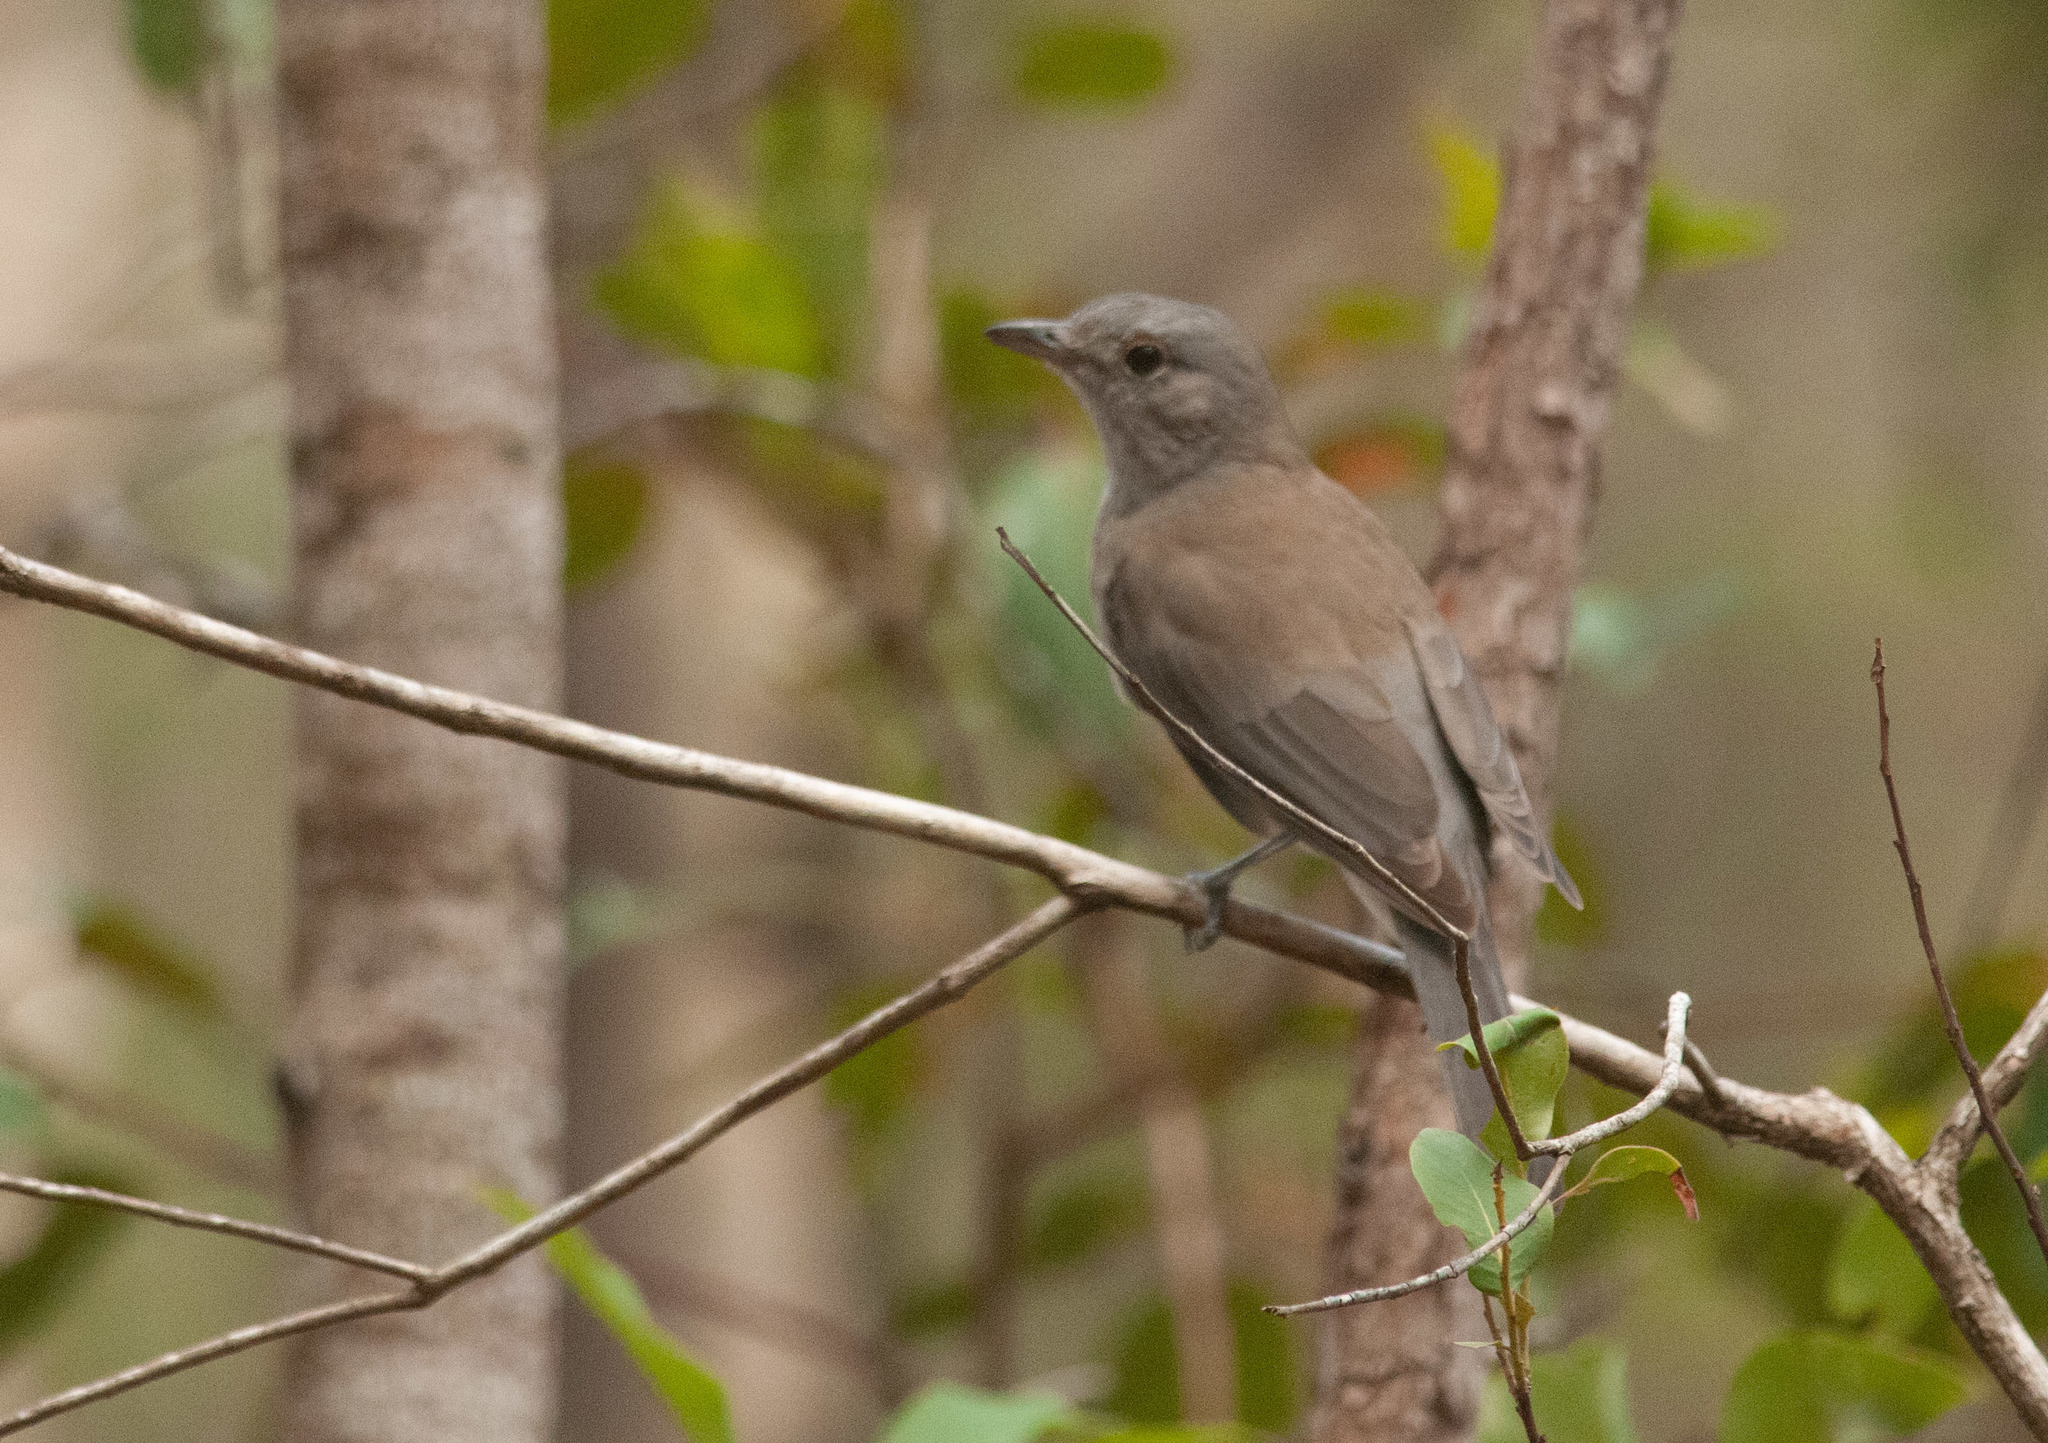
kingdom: Animalia
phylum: Chordata
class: Aves
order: Passeriformes
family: Pachycephalidae
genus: Colluricincla
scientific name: Colluricincla harmonica
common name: Grey shrikethrush
